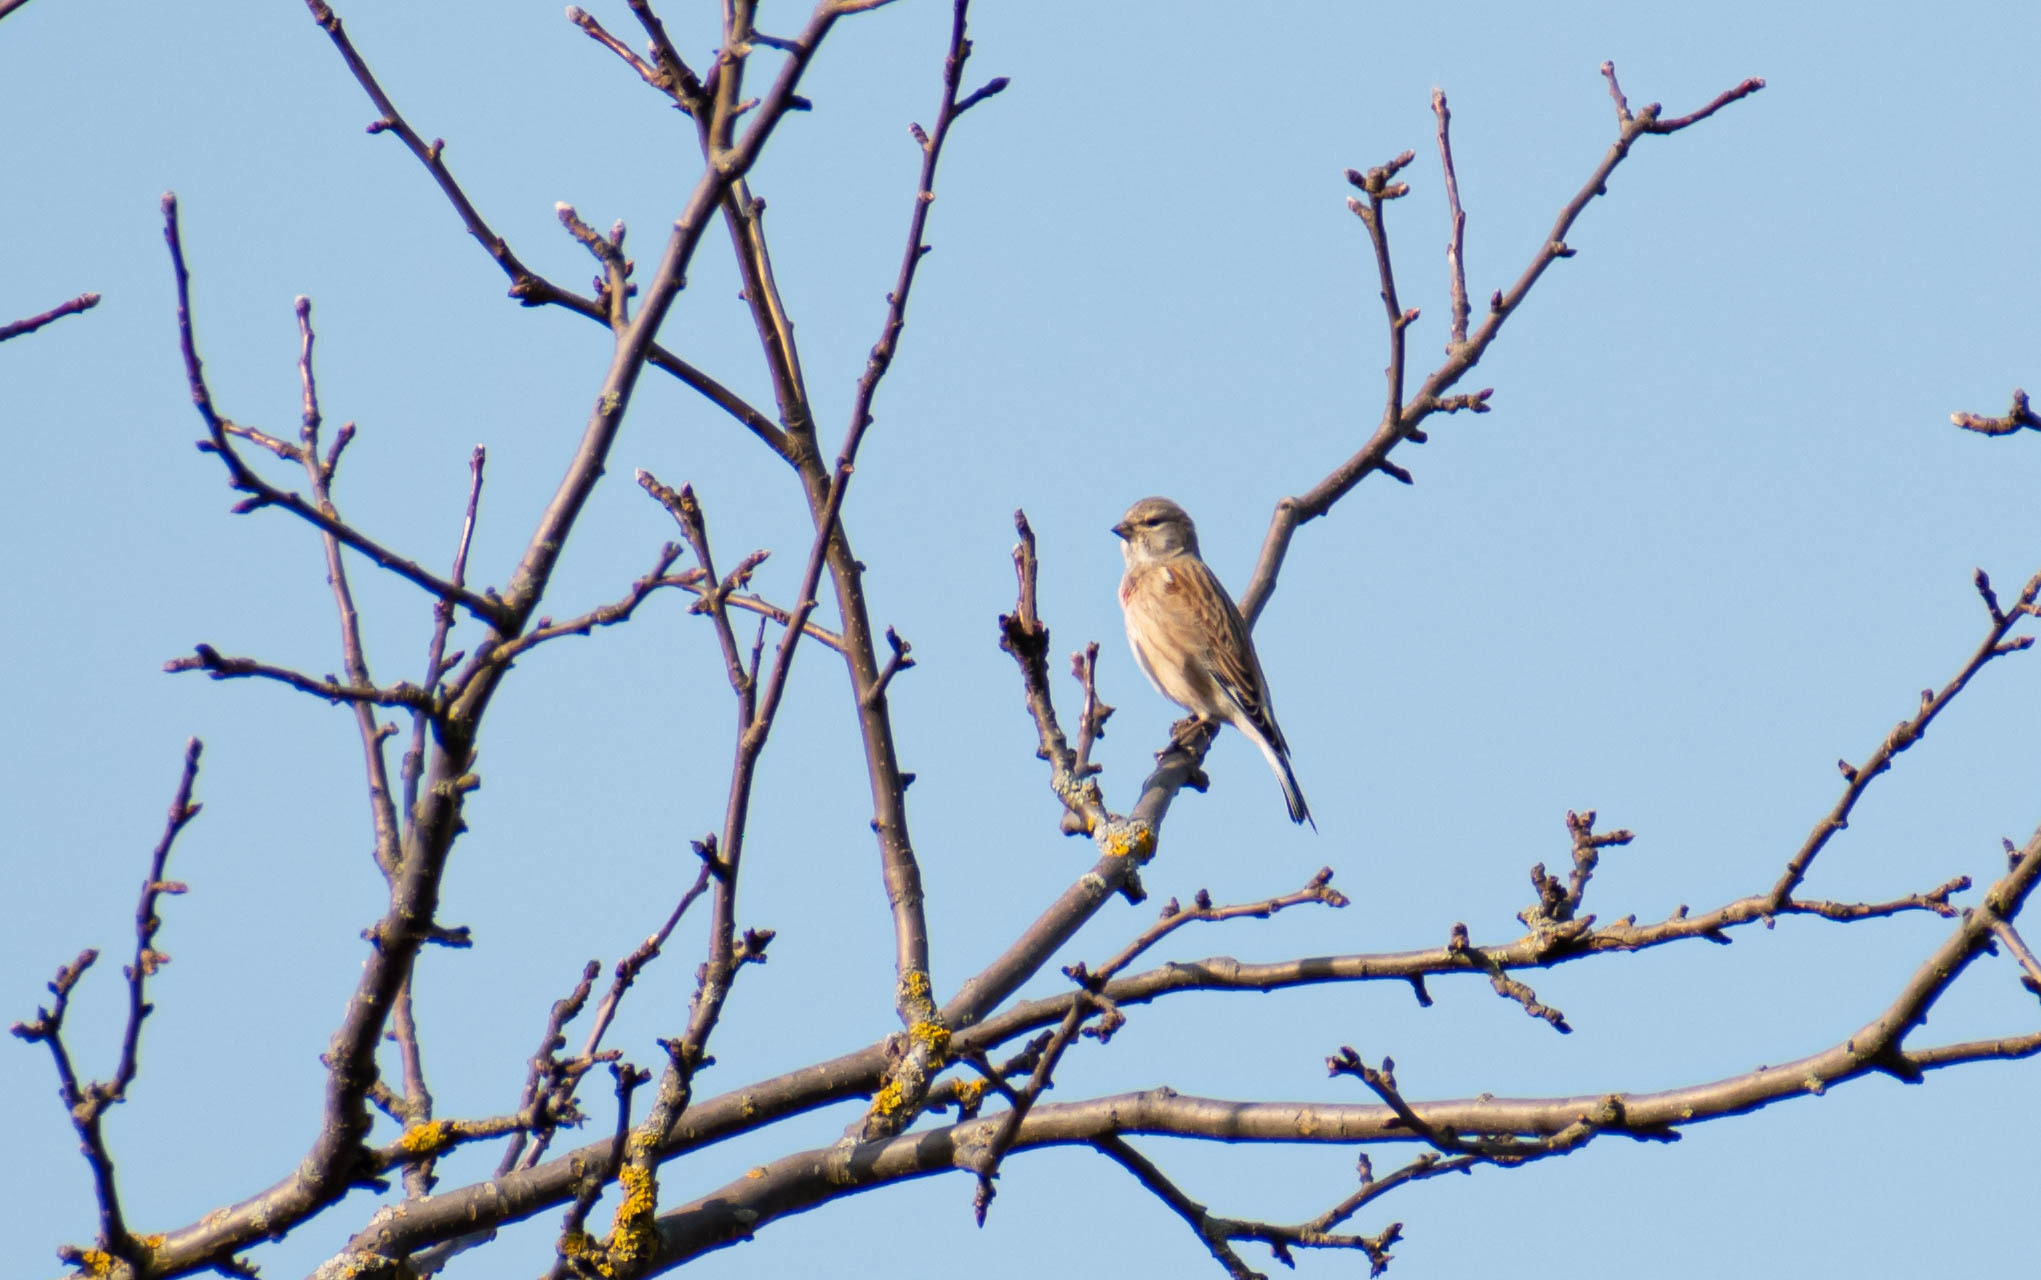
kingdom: Animalia
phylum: Chordata
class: Aves
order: Passeriformes
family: Fringillidae
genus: Linaria
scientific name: Linaria cannabina
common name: Common linnet
